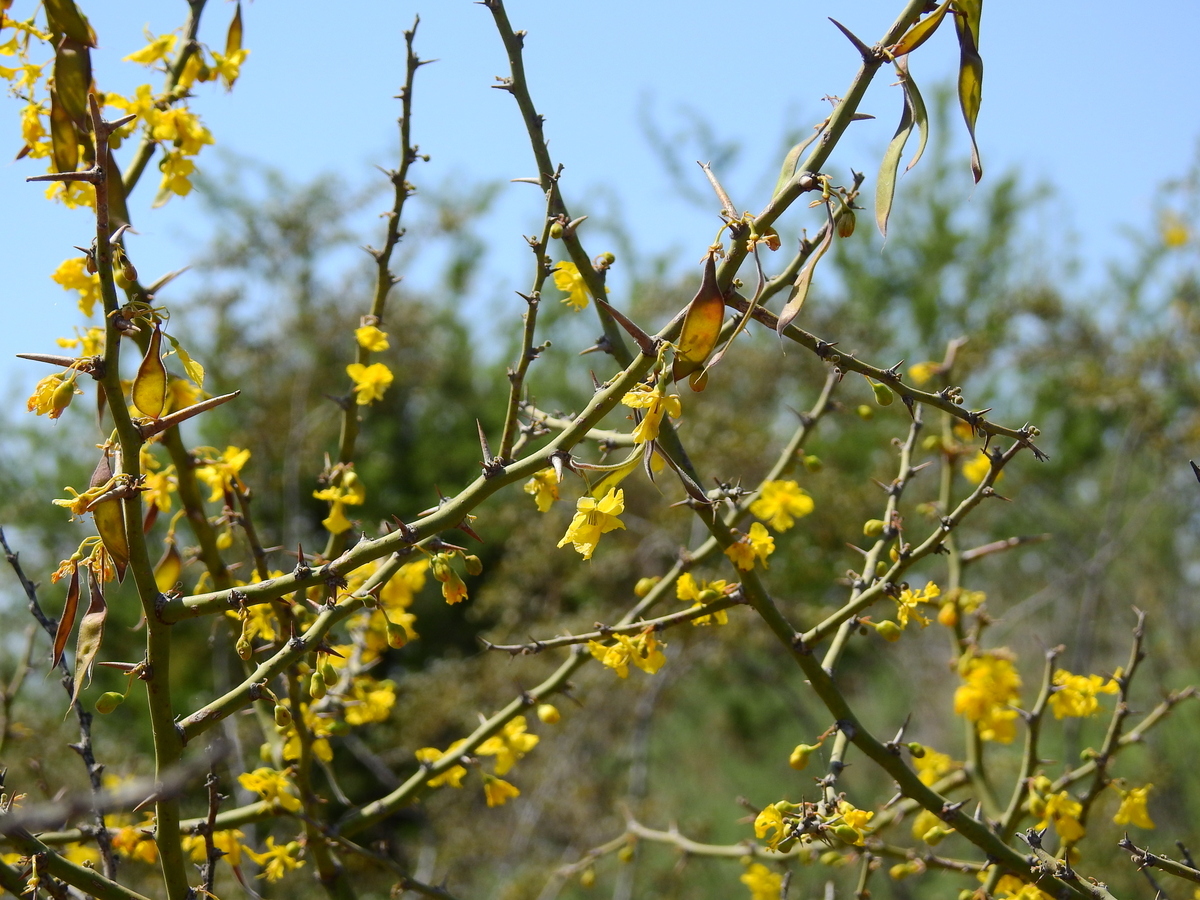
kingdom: Plantae
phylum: Tracheophyta
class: Magnoliopsida
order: Fabales
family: Fabaceae
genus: Parkinsonia
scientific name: Parkinsonia praecox
